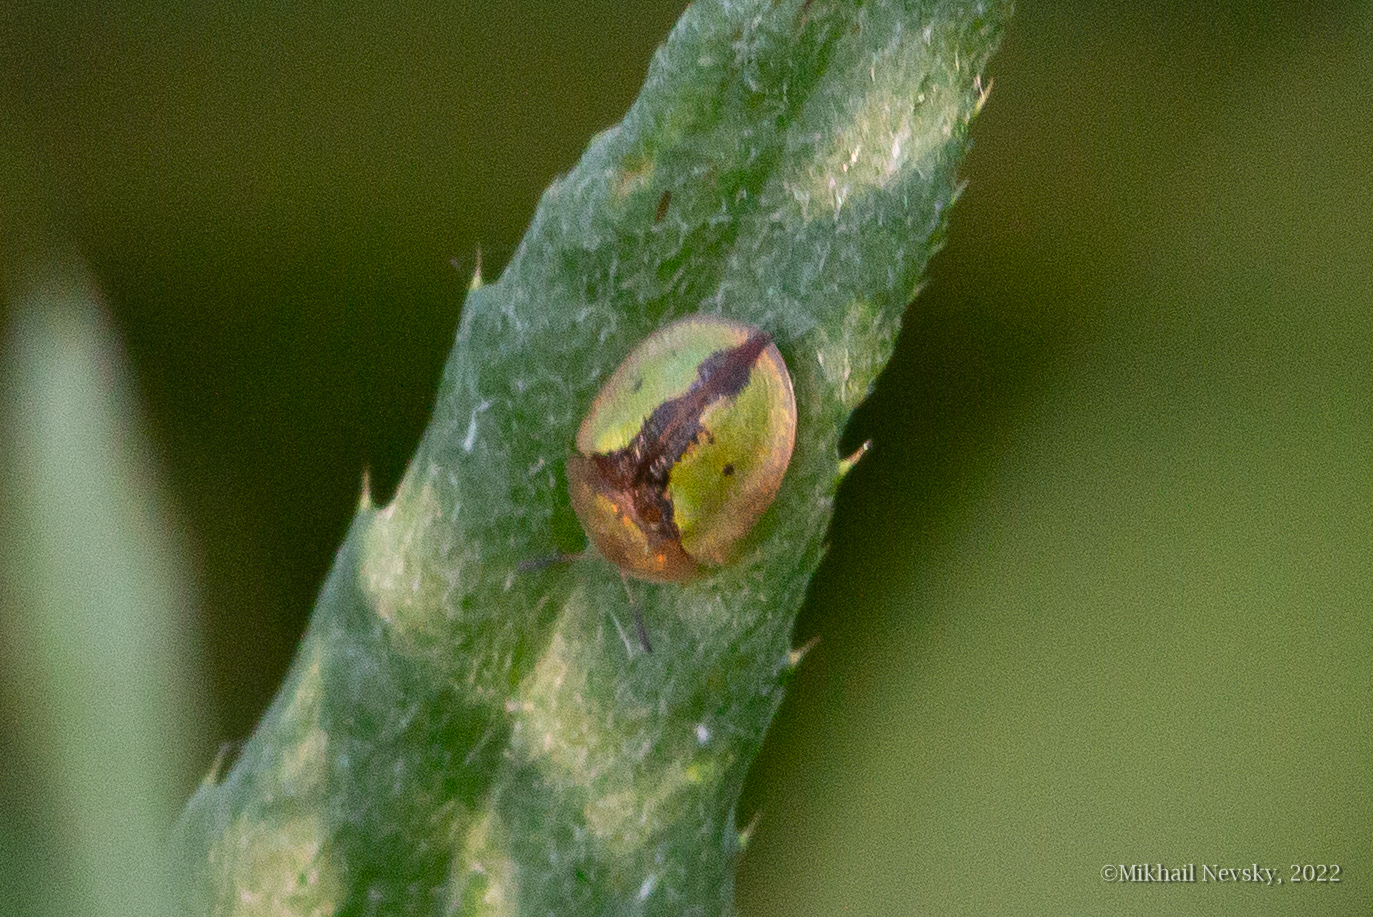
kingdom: Animalia
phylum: Arthropoda
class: Insecta
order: Coleoptera
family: Chrysomelidae
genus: Cassida
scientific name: Cassida vibex
